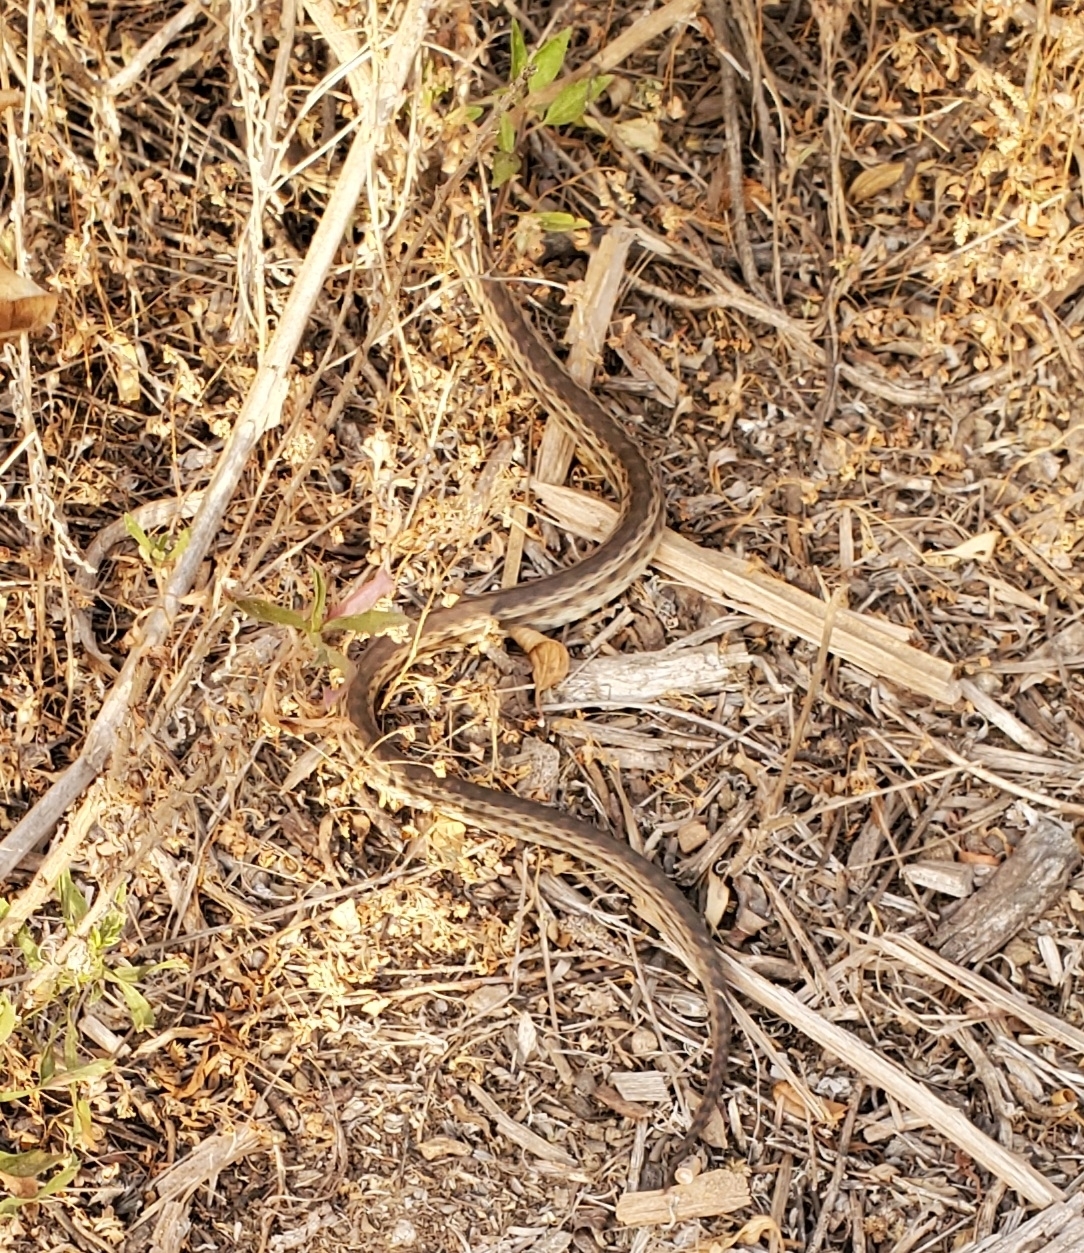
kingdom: Animalia
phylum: Chordata
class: Squamata
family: Colubridae
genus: Pituophis
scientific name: Pituophis catenifer
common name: Gopher snake
